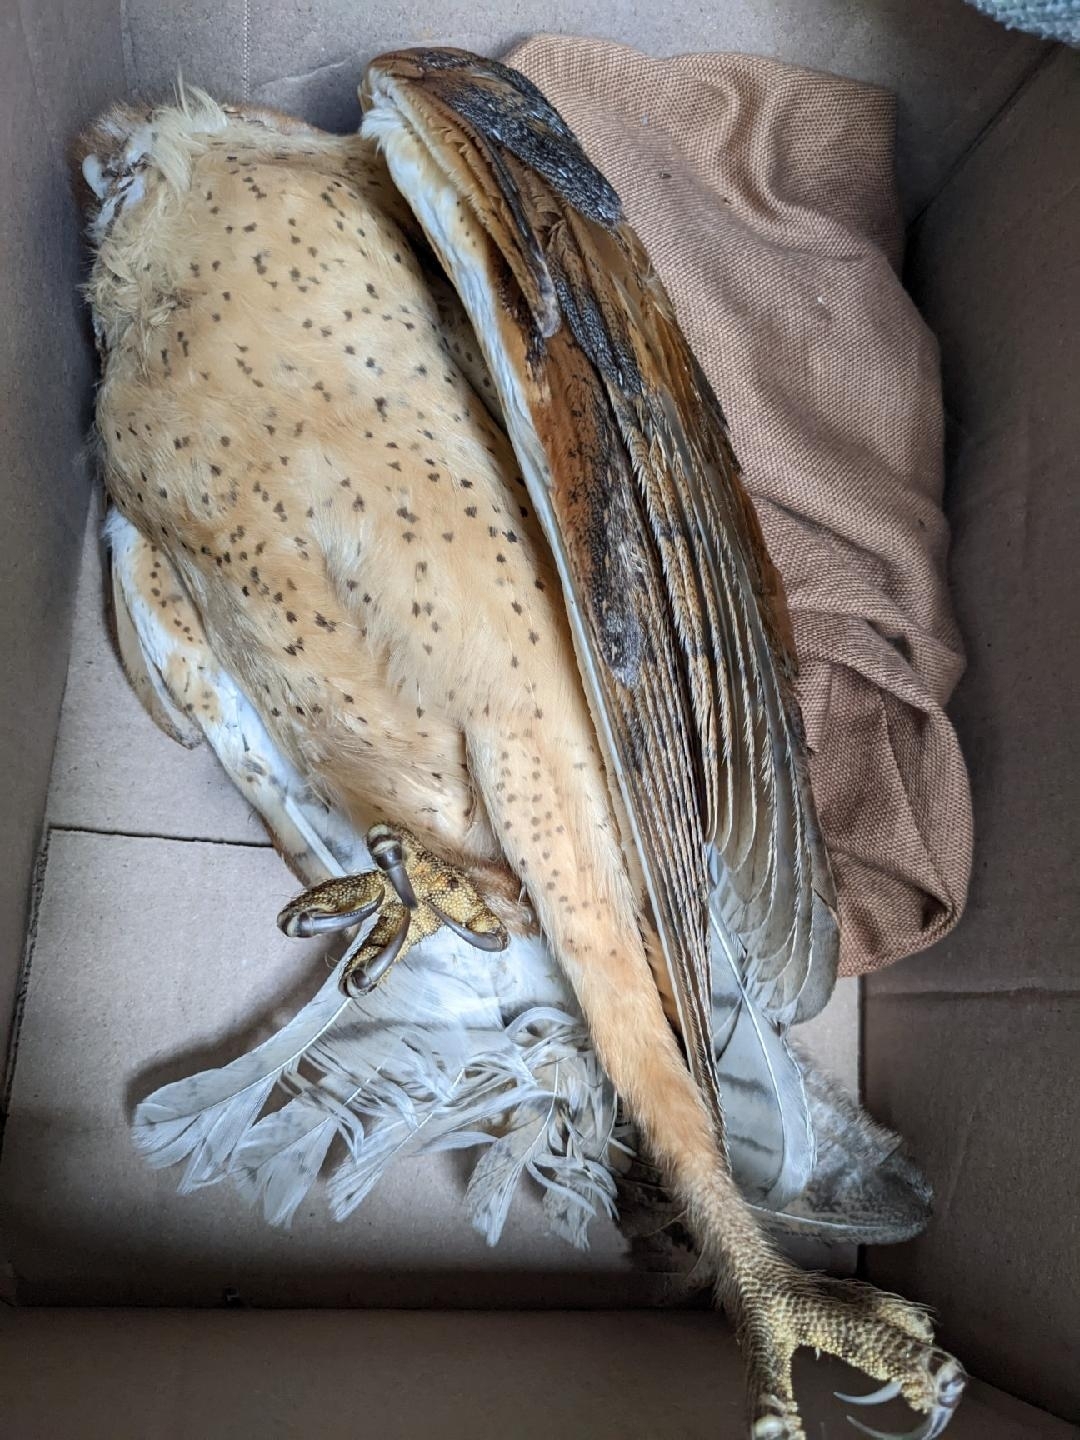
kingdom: Animalia
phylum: Chordata
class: Aves
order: Strigiformes
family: Tytonidae
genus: Tyto
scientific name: Tyto furcata
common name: American barn owl
